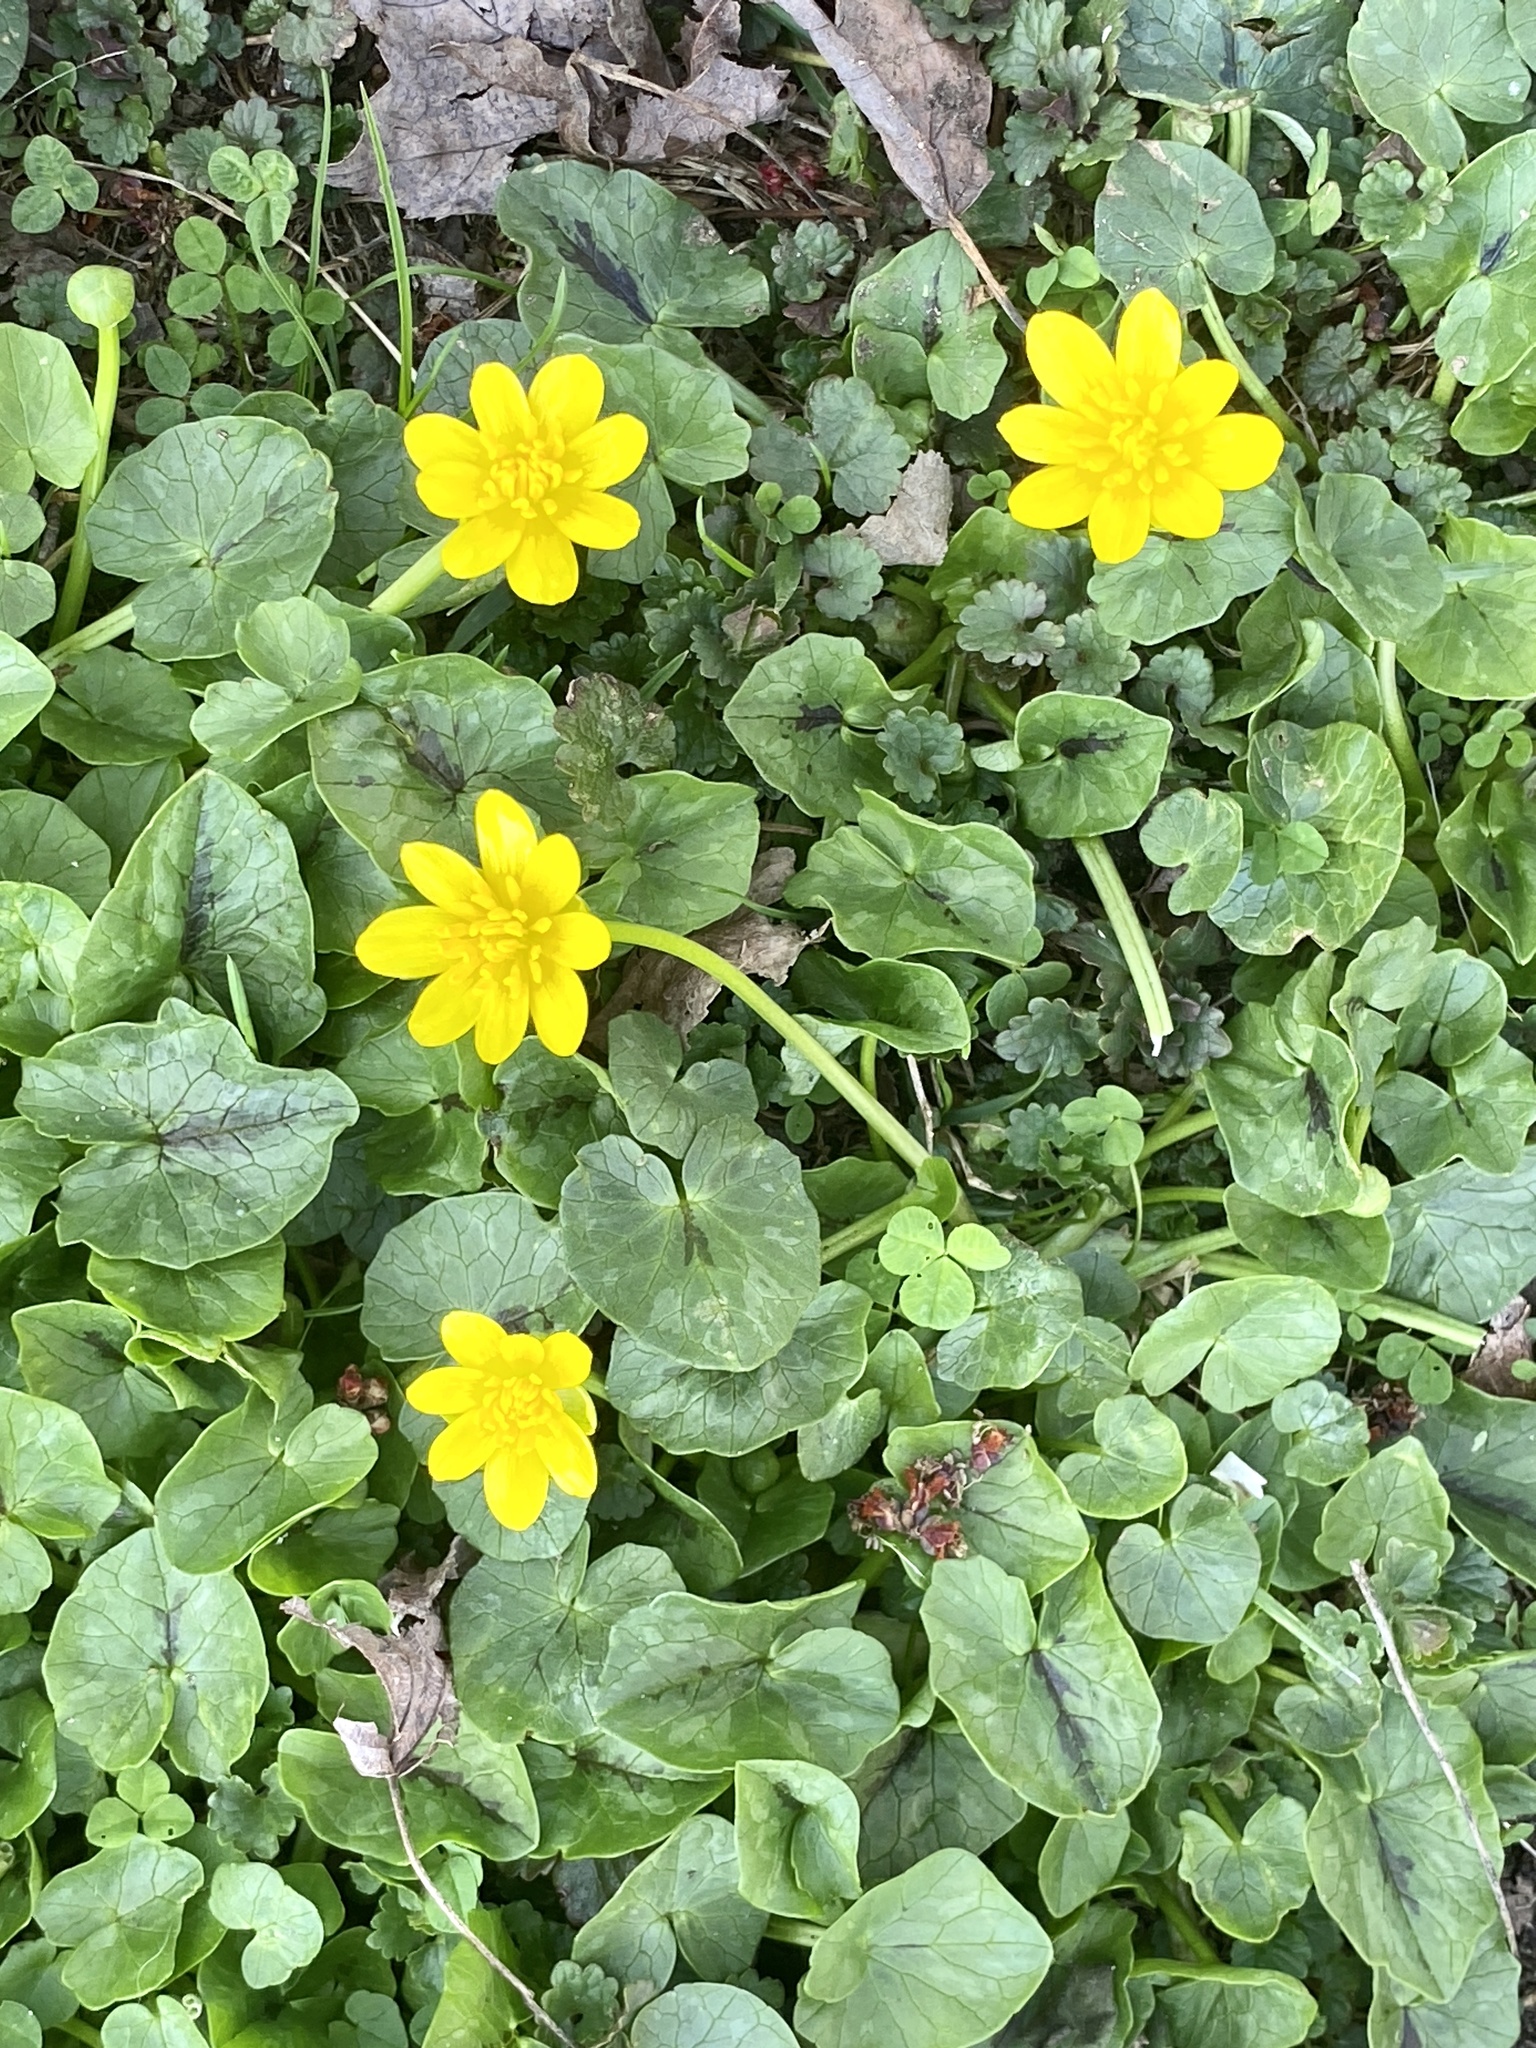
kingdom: Plantae
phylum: Tracheophyta
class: Magnoliopsida
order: Ranunculales
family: Ranunculaceae
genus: Ficaria
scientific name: Ficaria verna
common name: Lesser celandine
